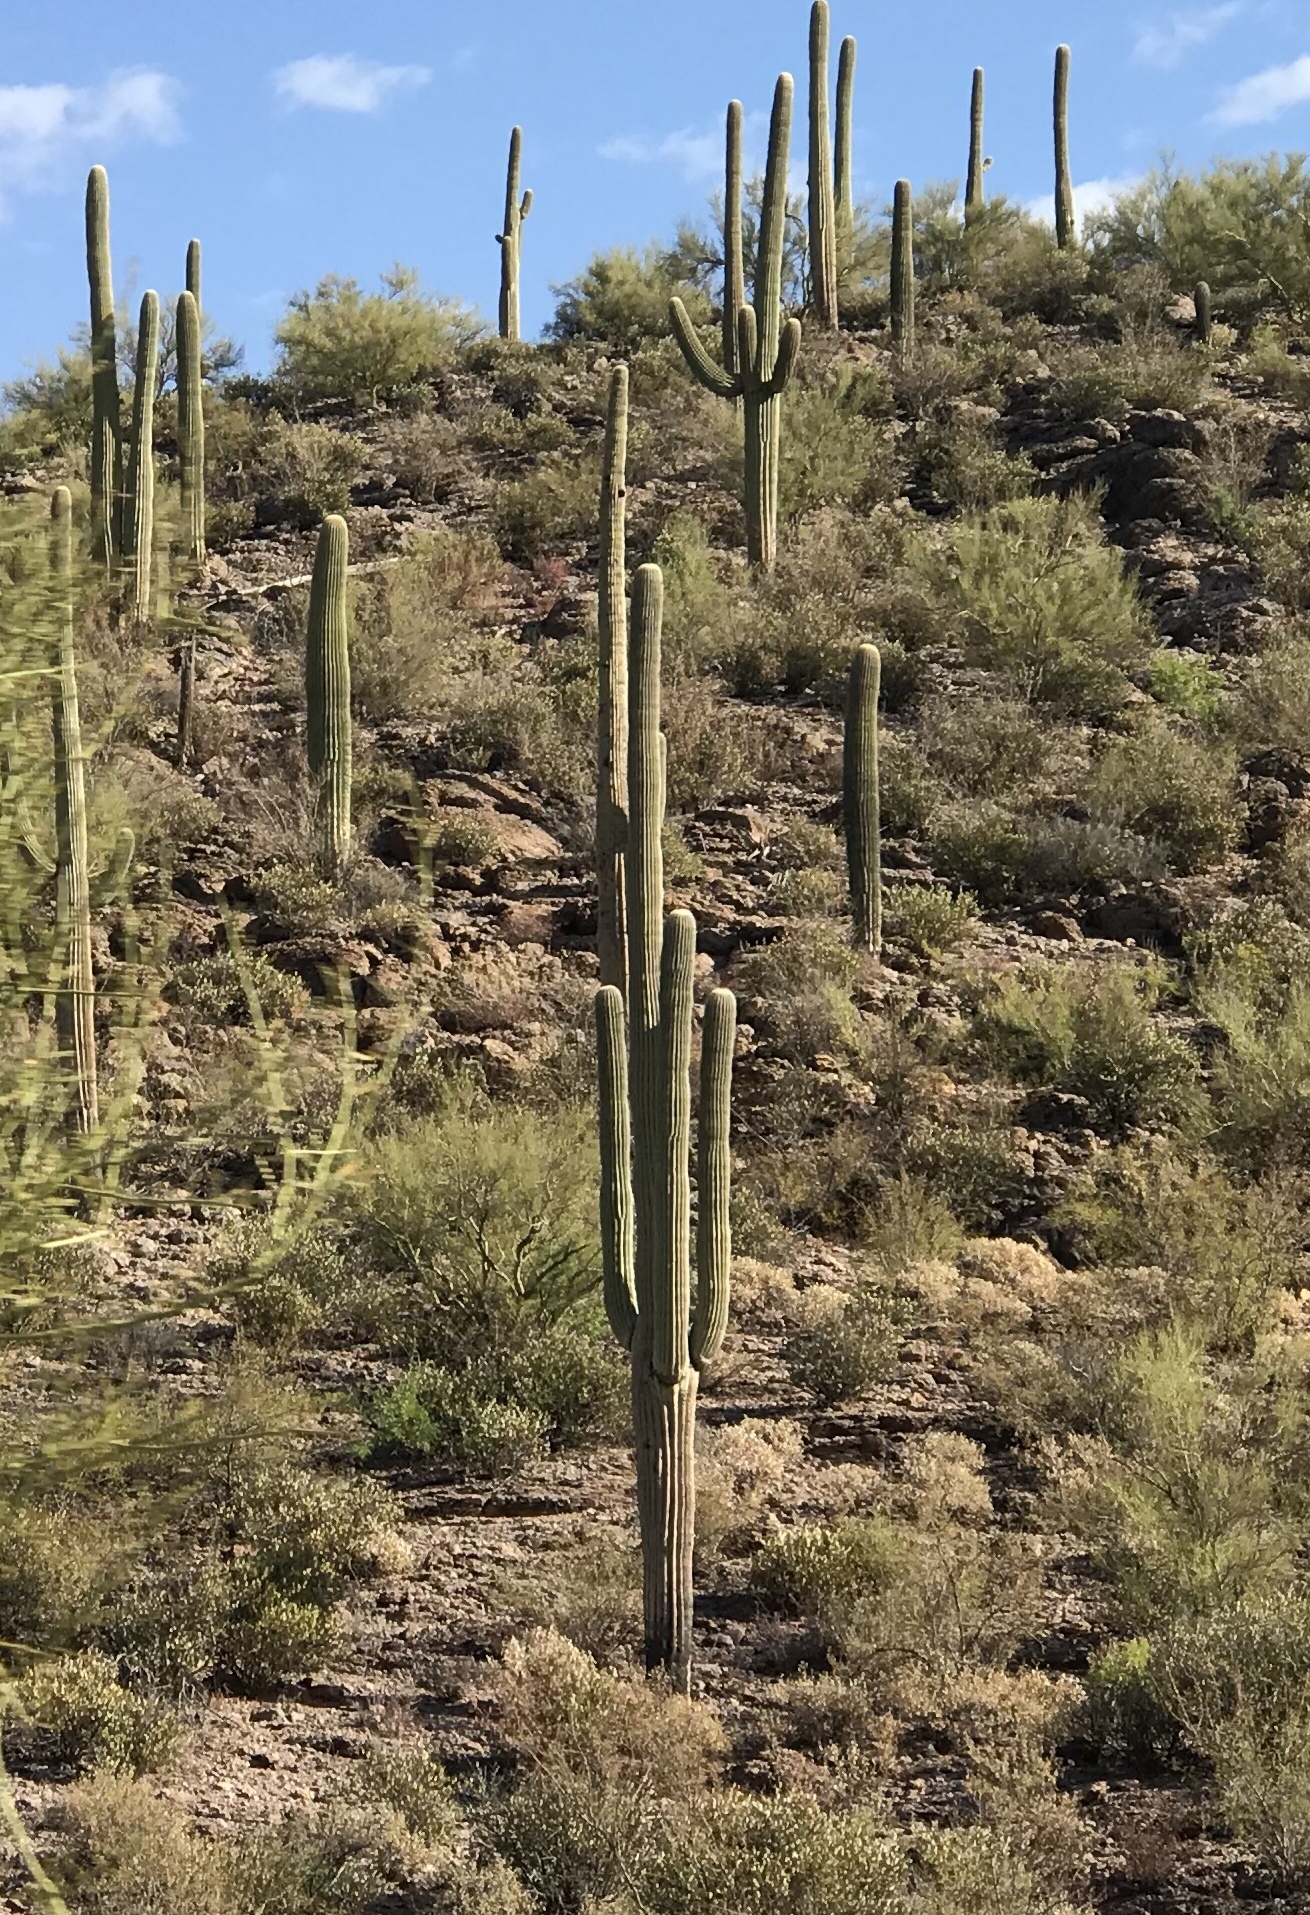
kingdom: Plantae
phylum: Tracheophyta
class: Magnoliopsida
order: Caryophyllales
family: Cactaceae
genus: Carnegiea
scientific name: Carnegiea gigantea
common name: Saguaro
